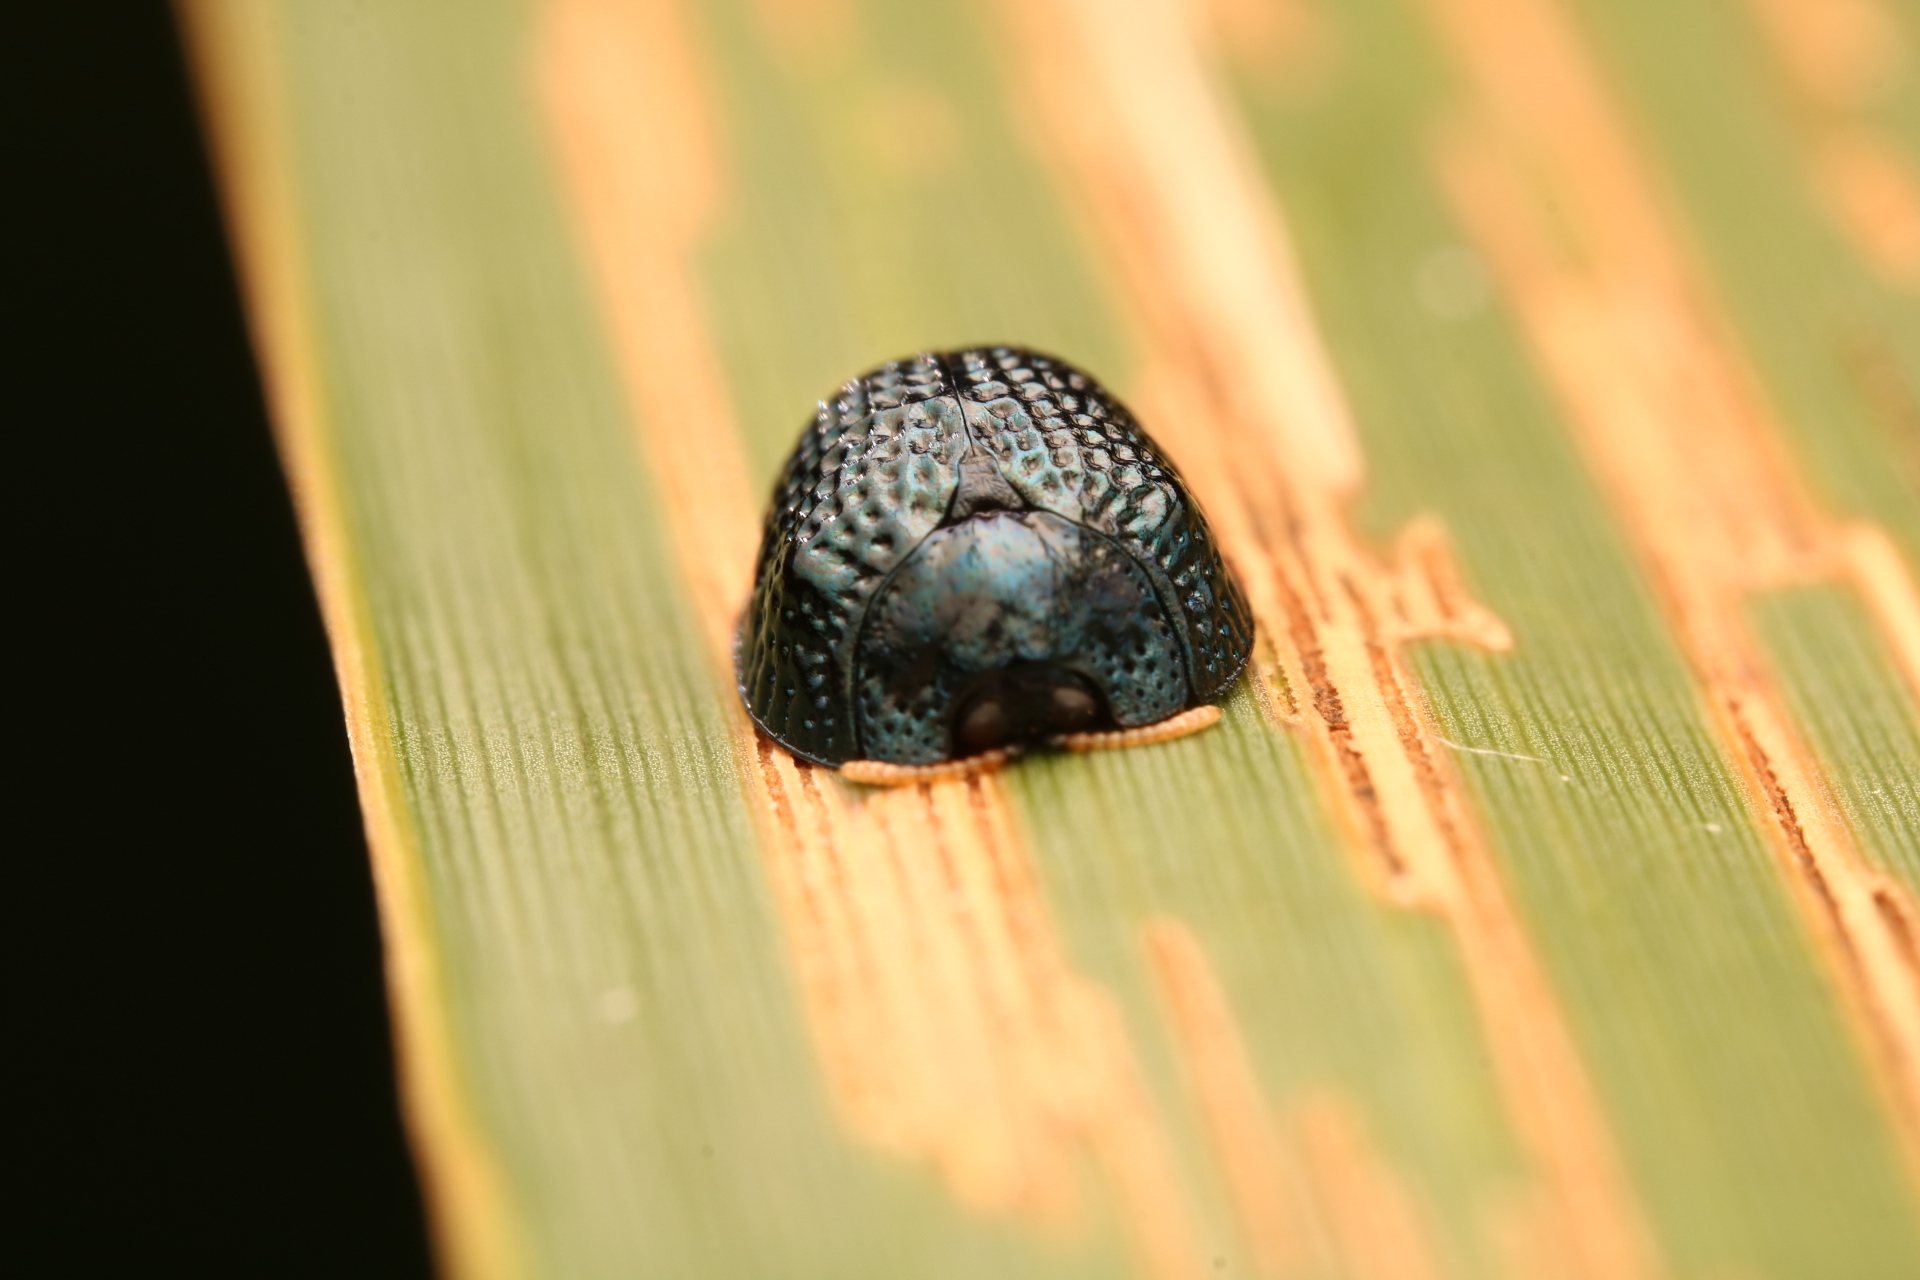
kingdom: Animalia
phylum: Arthropoda
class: Insecta
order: Coleoptera
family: Chrysomelidae
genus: Hemisphaerota
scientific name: Hemisphaerota cyanea
